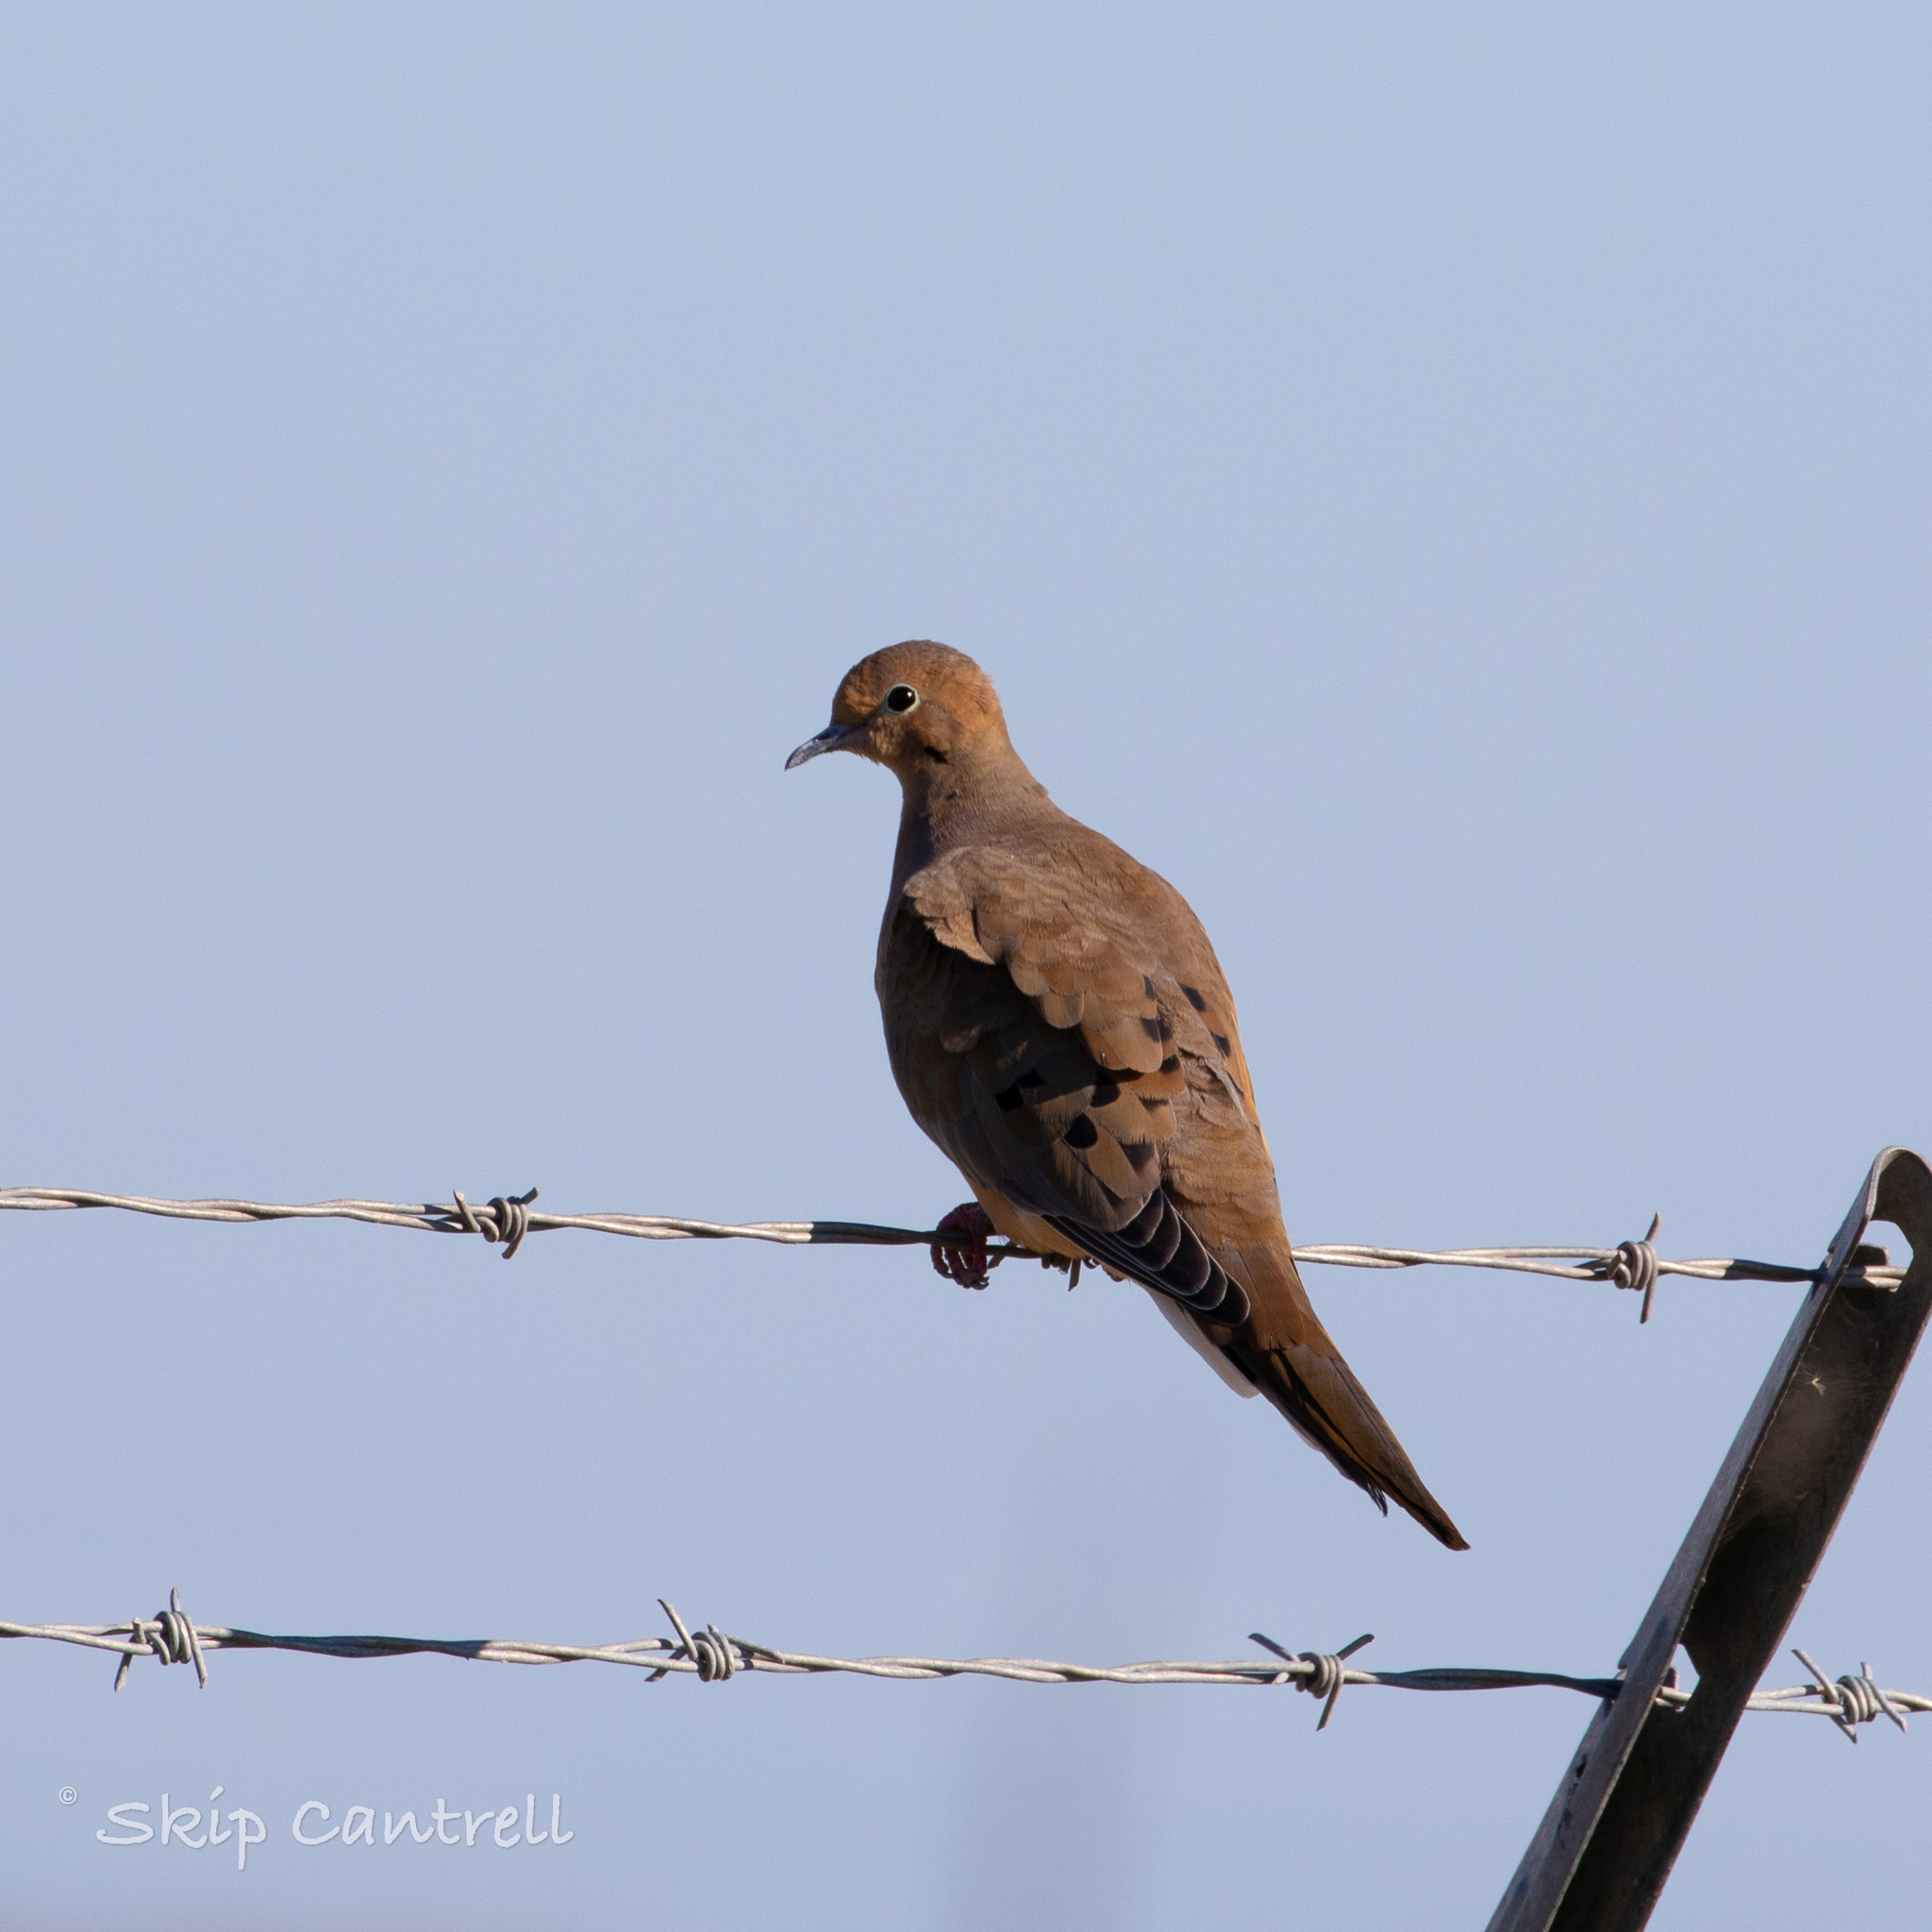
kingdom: Animalia
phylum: Chordata
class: Aves
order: Columbiformes
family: Columbidae
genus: Zenaida
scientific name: Zenaida macroura
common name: Mourning dove
